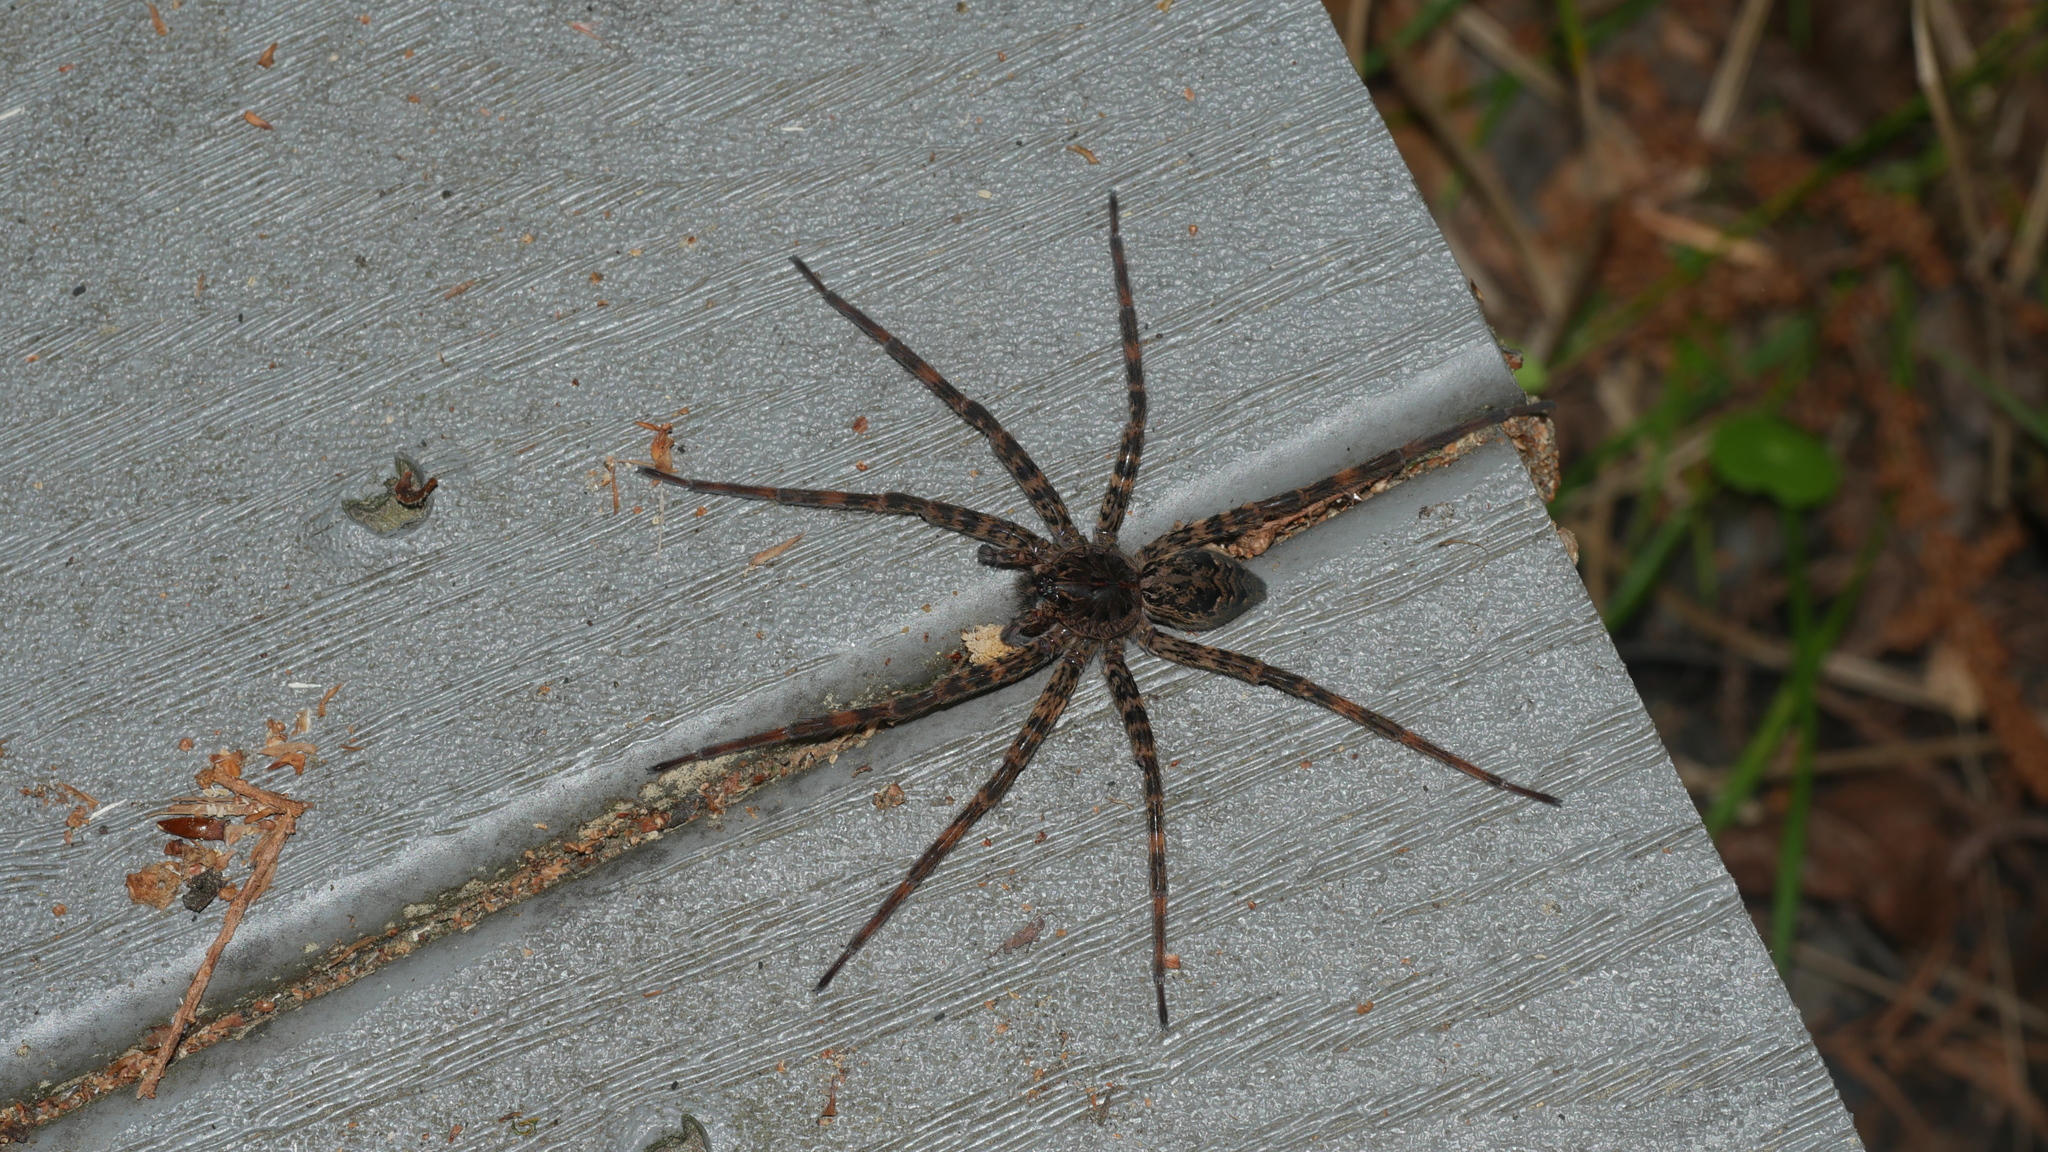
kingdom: Animalia
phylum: Arthropoda
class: Arachnida
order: Araneae
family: Pisauridae
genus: Dolomedes
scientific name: Dolomedes tenebrosus
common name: Dark fishing spider
